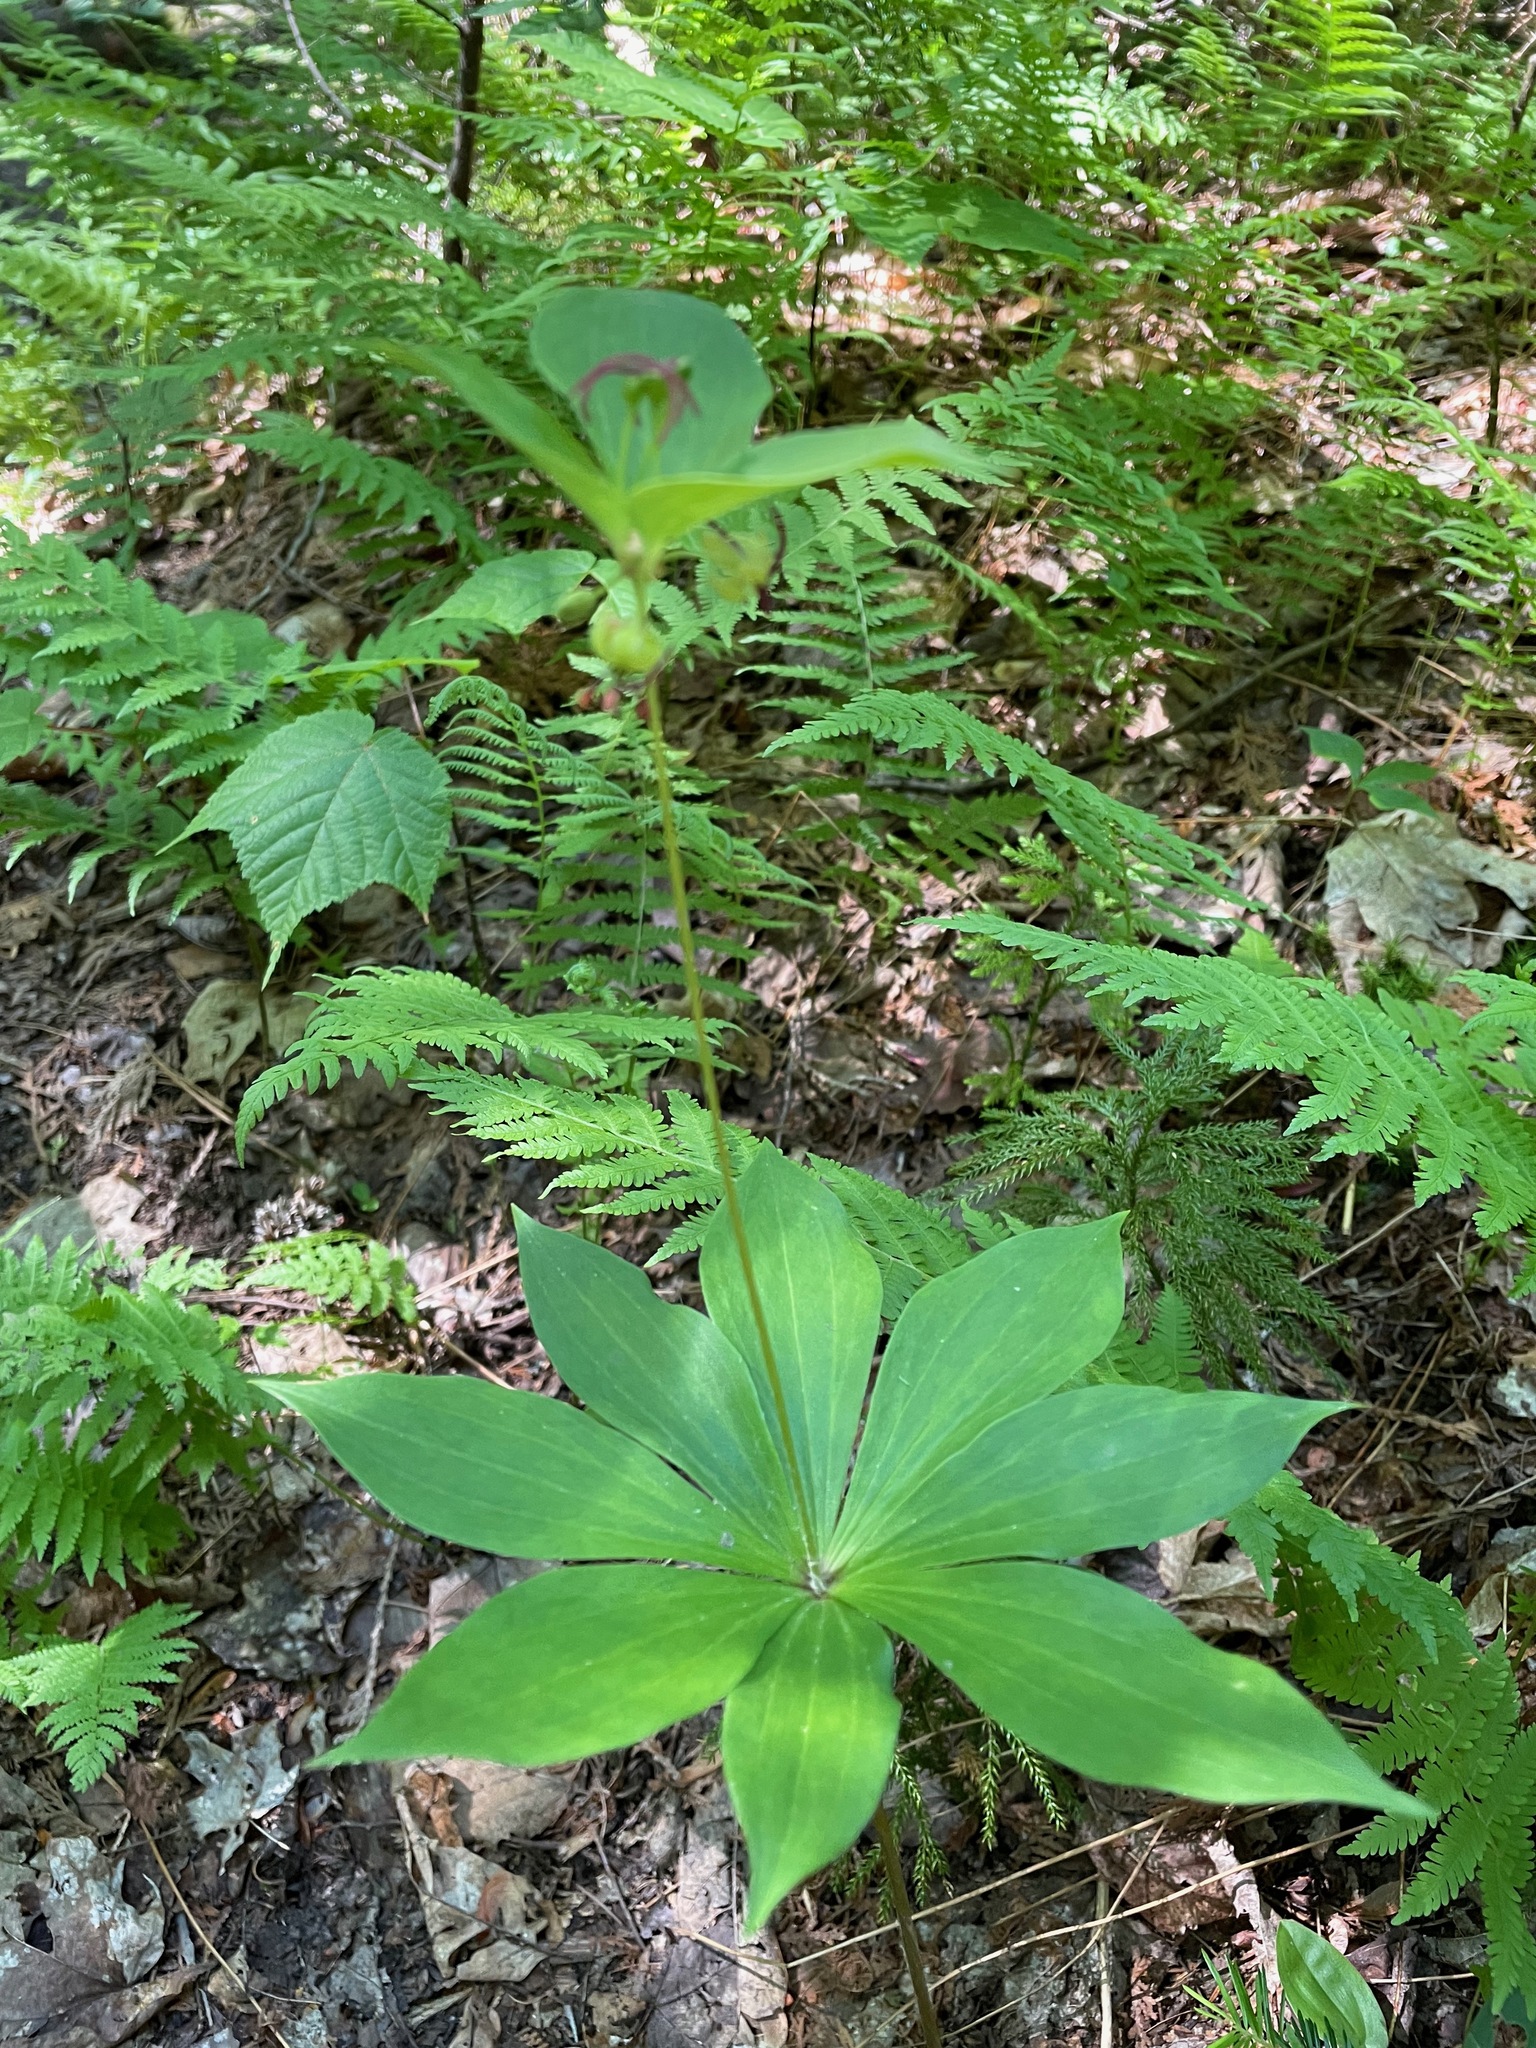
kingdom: Plantae
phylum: Tracheophyta
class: Liliopsida
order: Liliales
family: Liliaceae
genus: Medeola
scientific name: Medeola virginiana
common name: Indian cucumber-root
